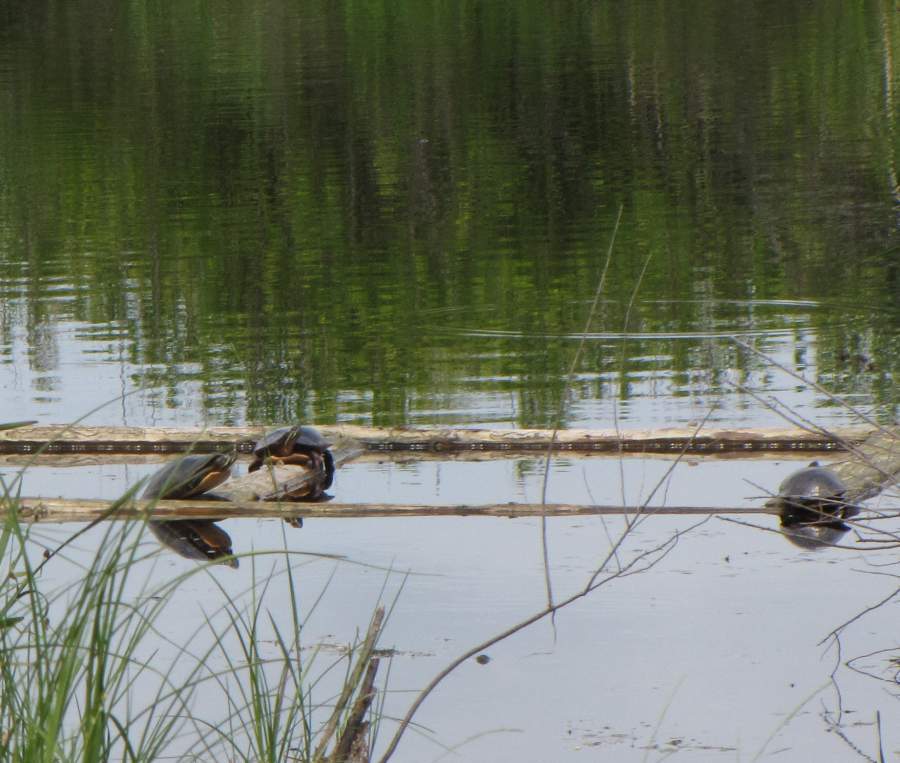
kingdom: Animalia
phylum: Chordata
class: Testudines
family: Emydidae
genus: Chrysemys
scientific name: Chrysemys picta
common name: Painted turtle
